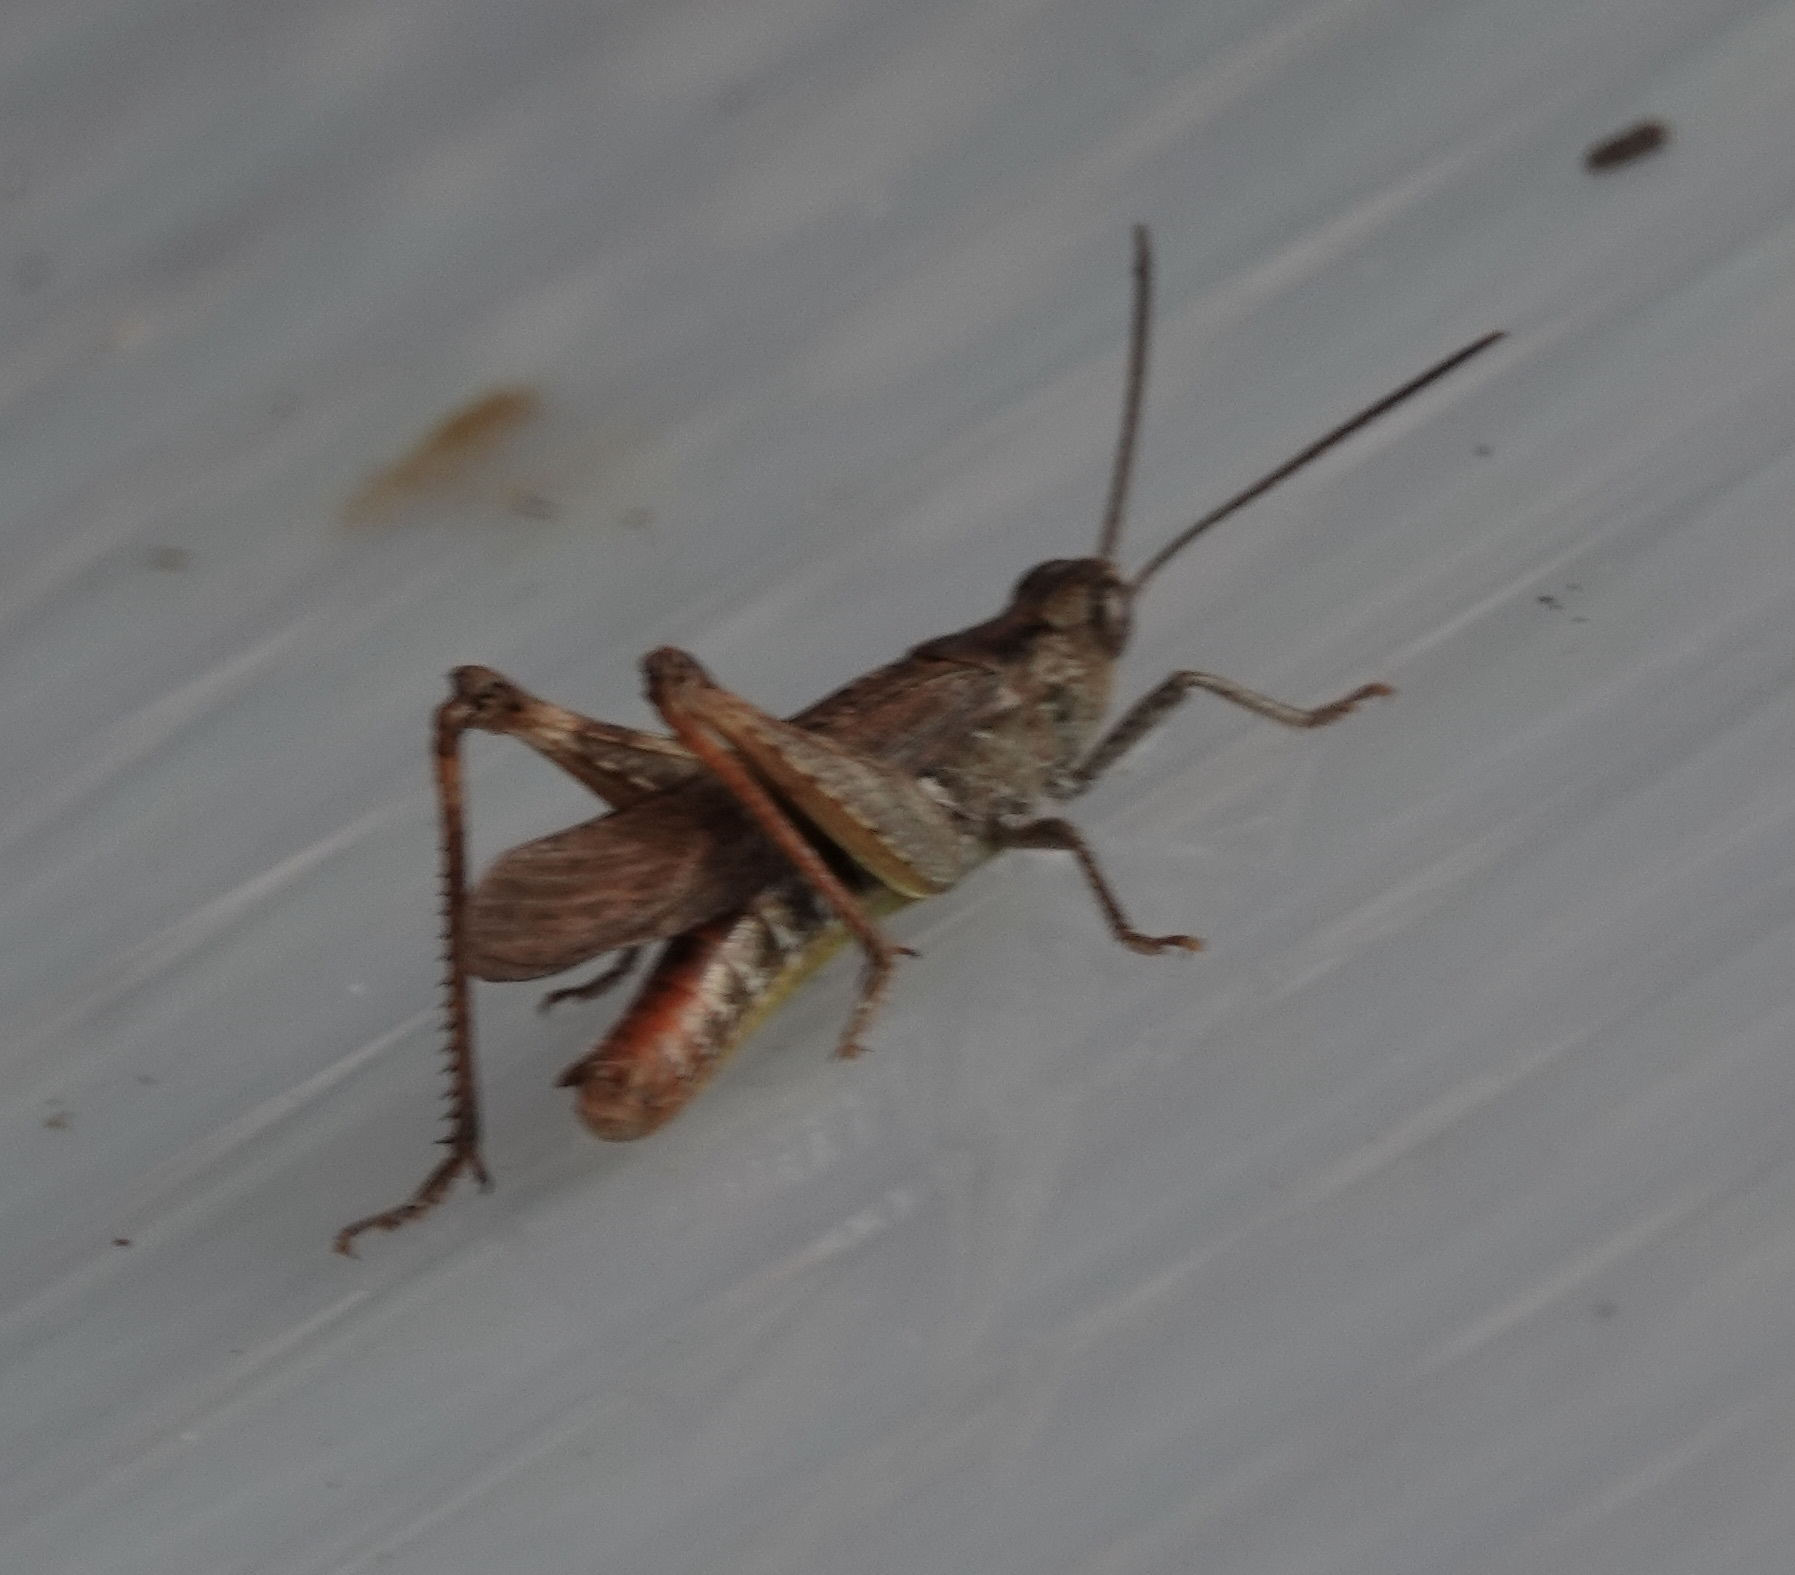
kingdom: Animalia
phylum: Arthropoda
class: Insecta
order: Orthoptera
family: Acrididae
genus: Chorthippus
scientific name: Chorthippus brunneus
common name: Field grasshopper
